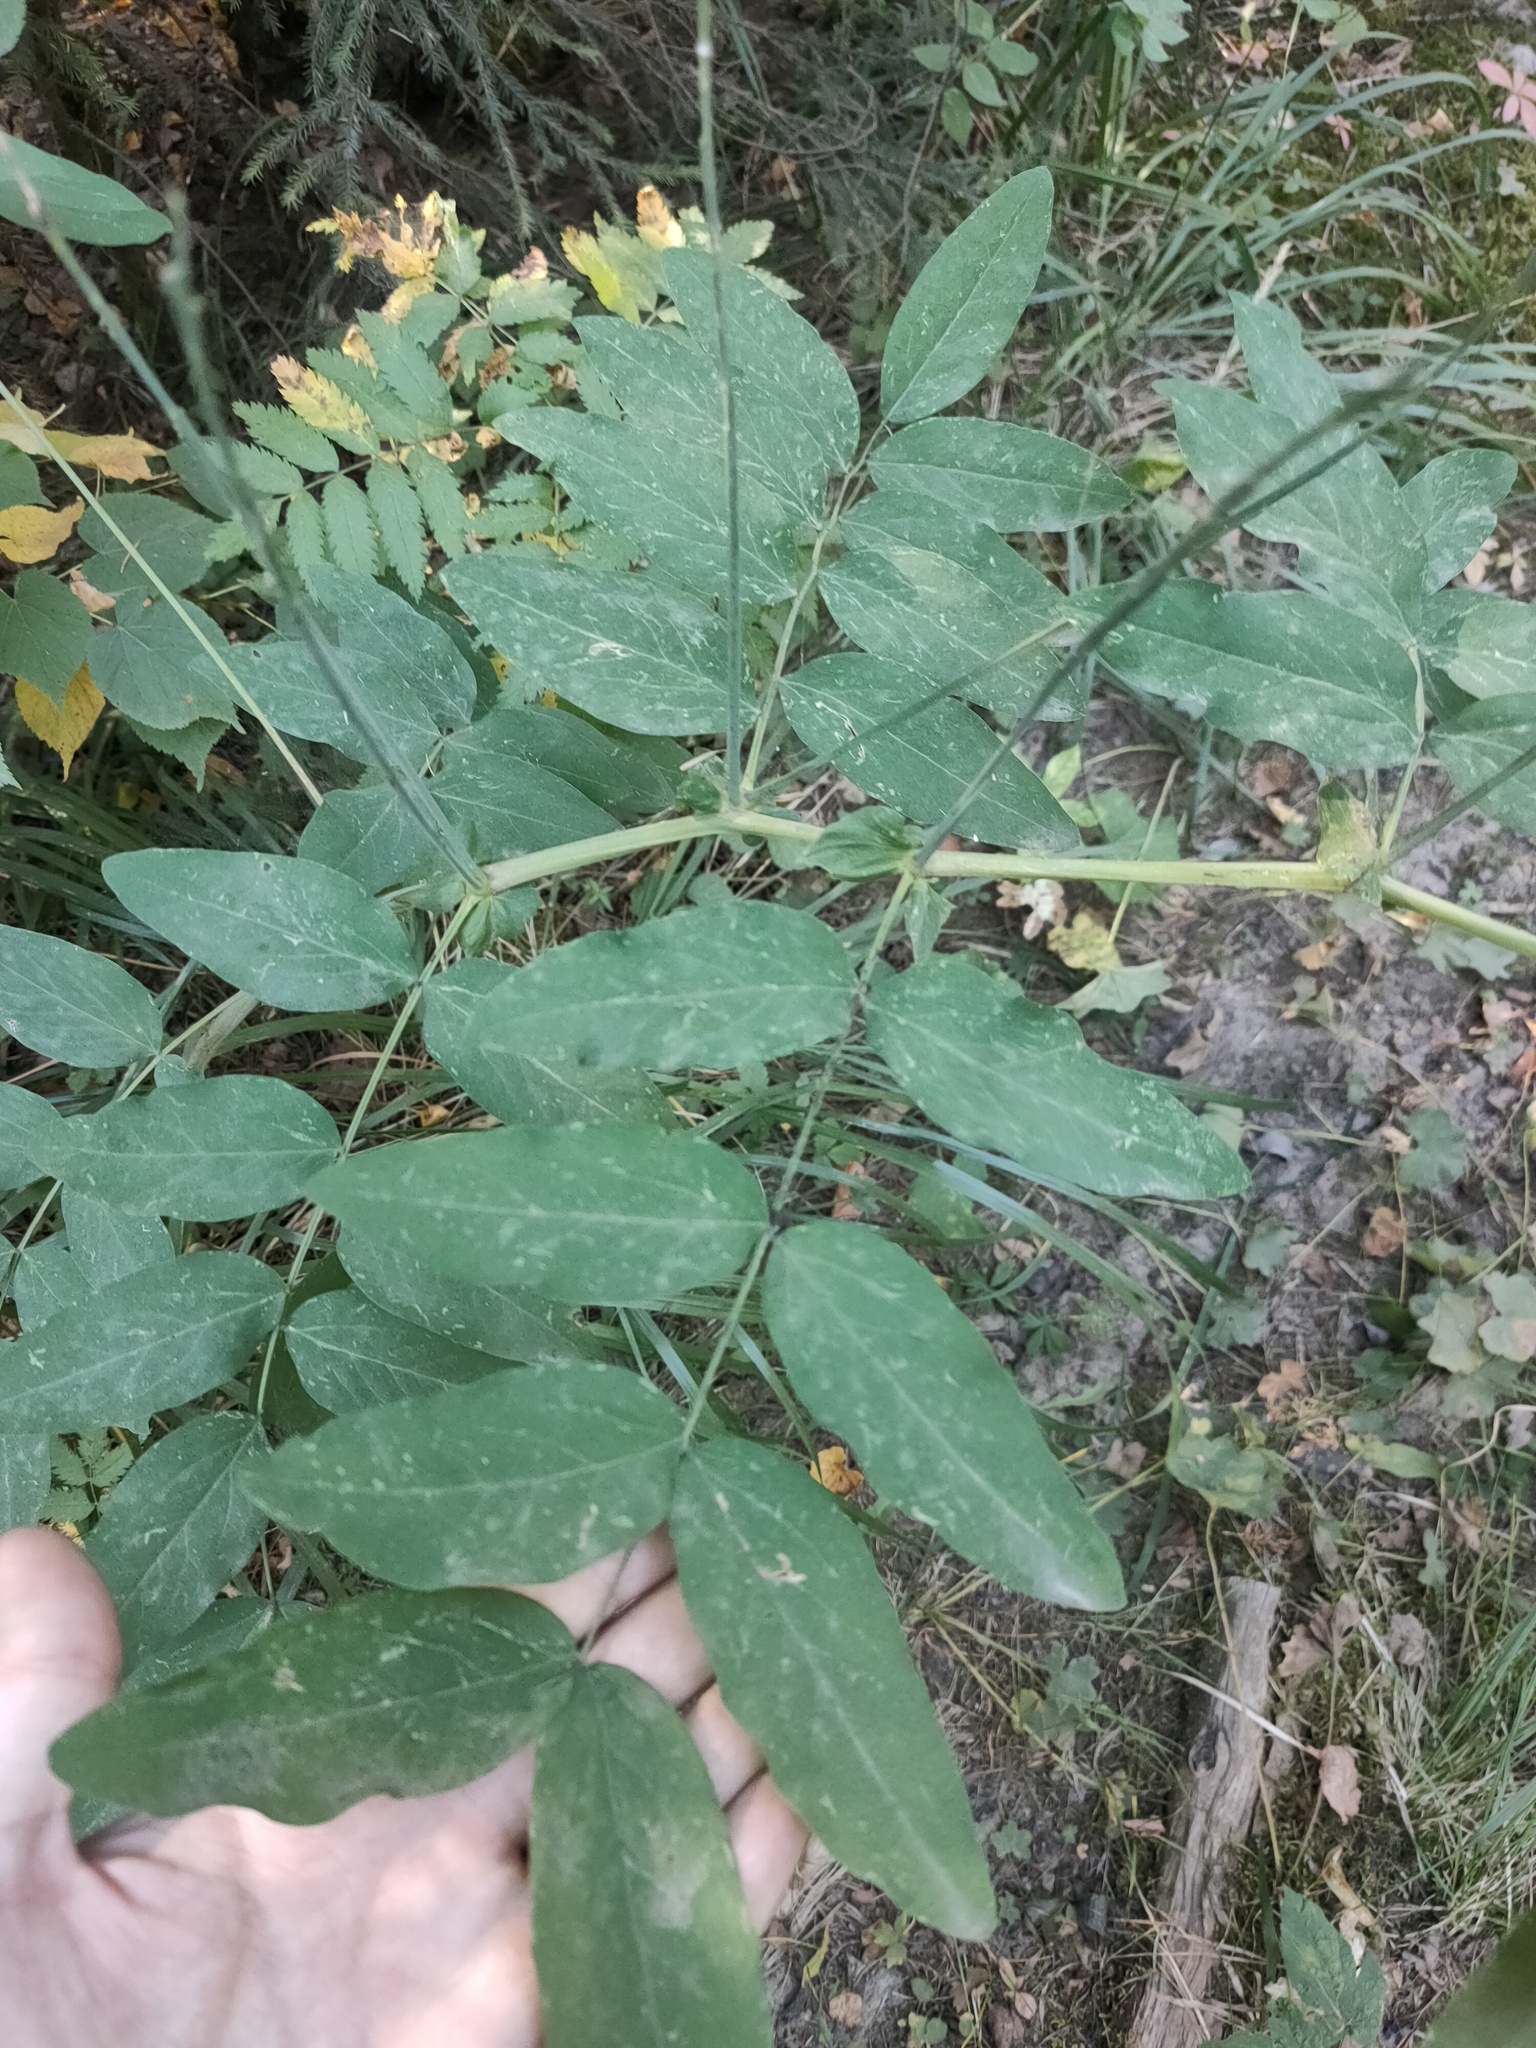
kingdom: Plantae
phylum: Tracheophyta
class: Magnoliopsida
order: Fabales
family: Fabaceae
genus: Lathyrus
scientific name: Lathyrus gmelinii
